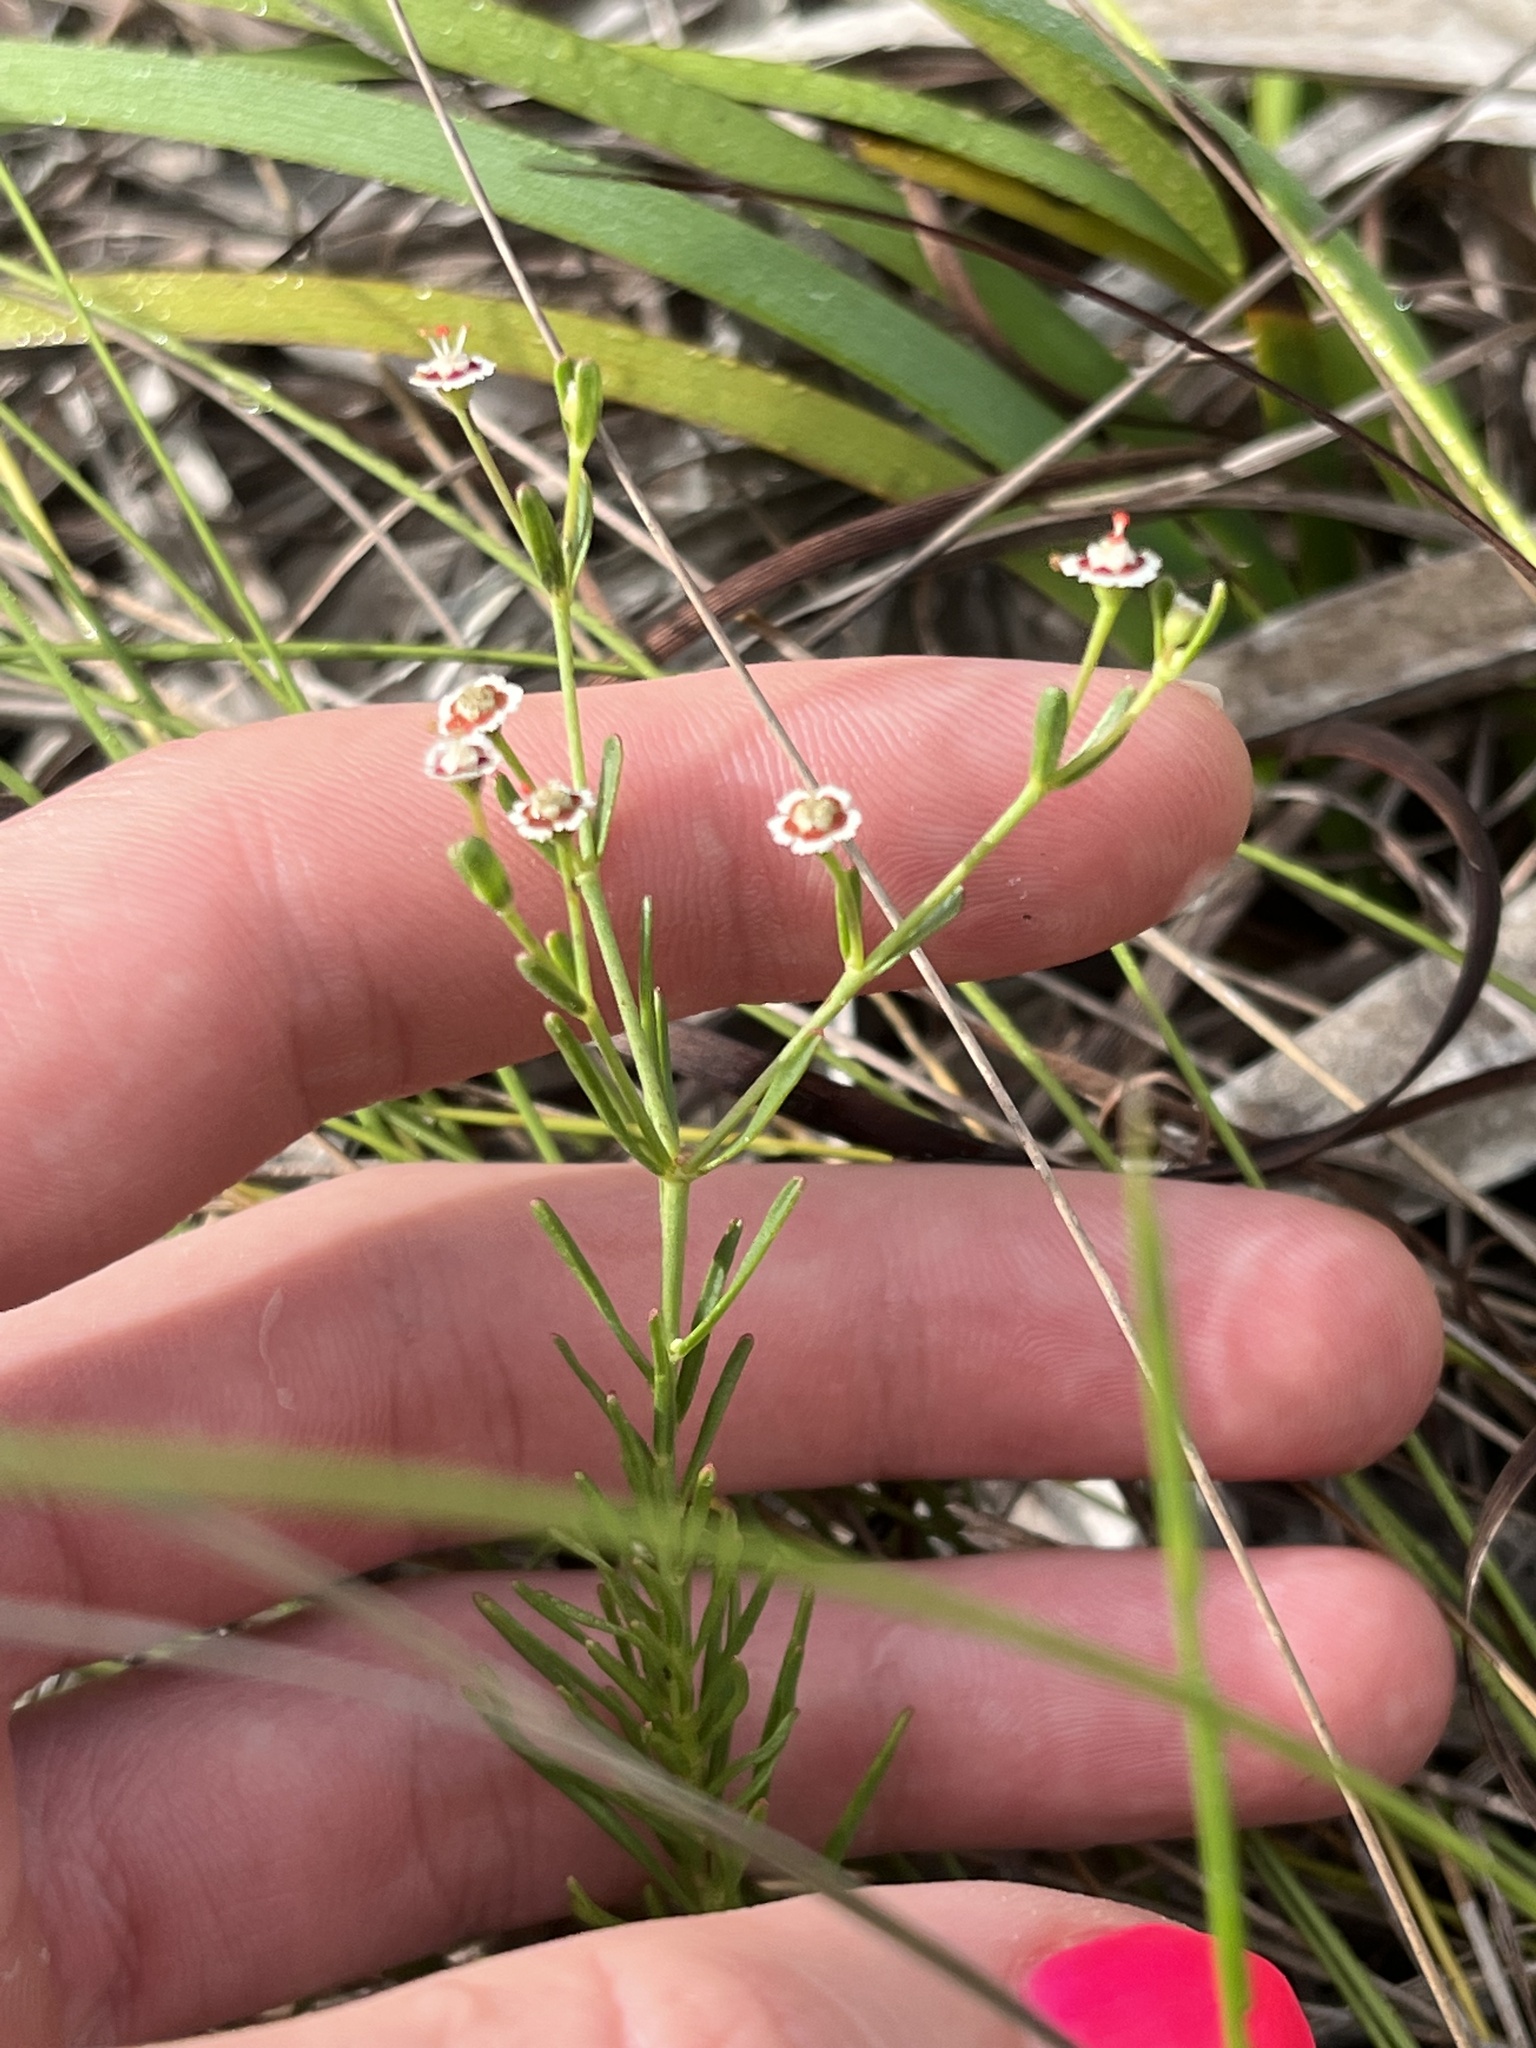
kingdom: Plantae
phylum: Tracheophyta
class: Magnoliopsida
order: Malpighiales
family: Euphorbiaceae
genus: Euphorbia
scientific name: Euphorbia polyphylla
